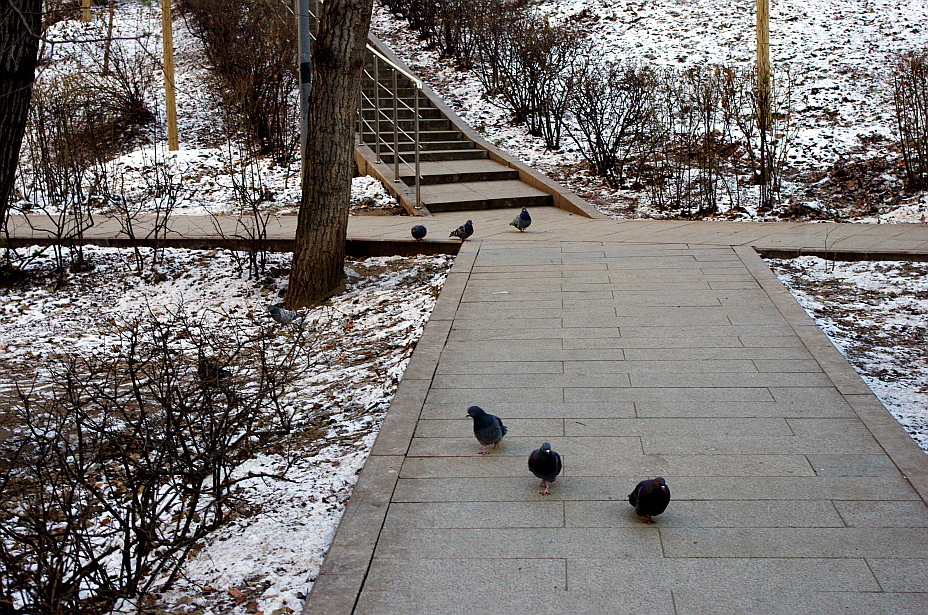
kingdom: Animalia
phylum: Chordata
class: Aves
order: Columbiformes
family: Columbidae
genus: Columba
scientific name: Columba livia
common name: Rock pigeon
